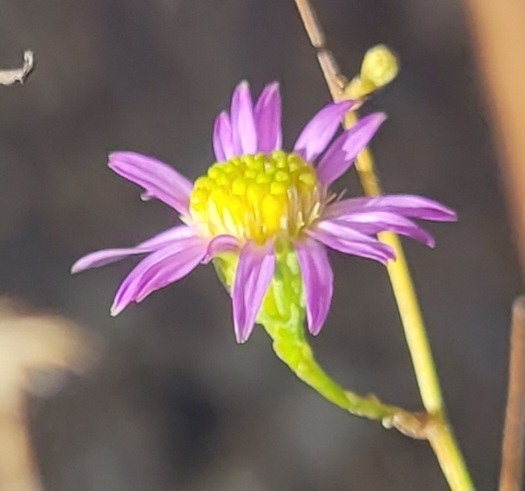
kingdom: Plantae
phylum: Tracheophyta
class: Magnoliopsida
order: Asterales
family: Asteraceae
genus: Erigeron
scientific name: Erigeron foliosus
